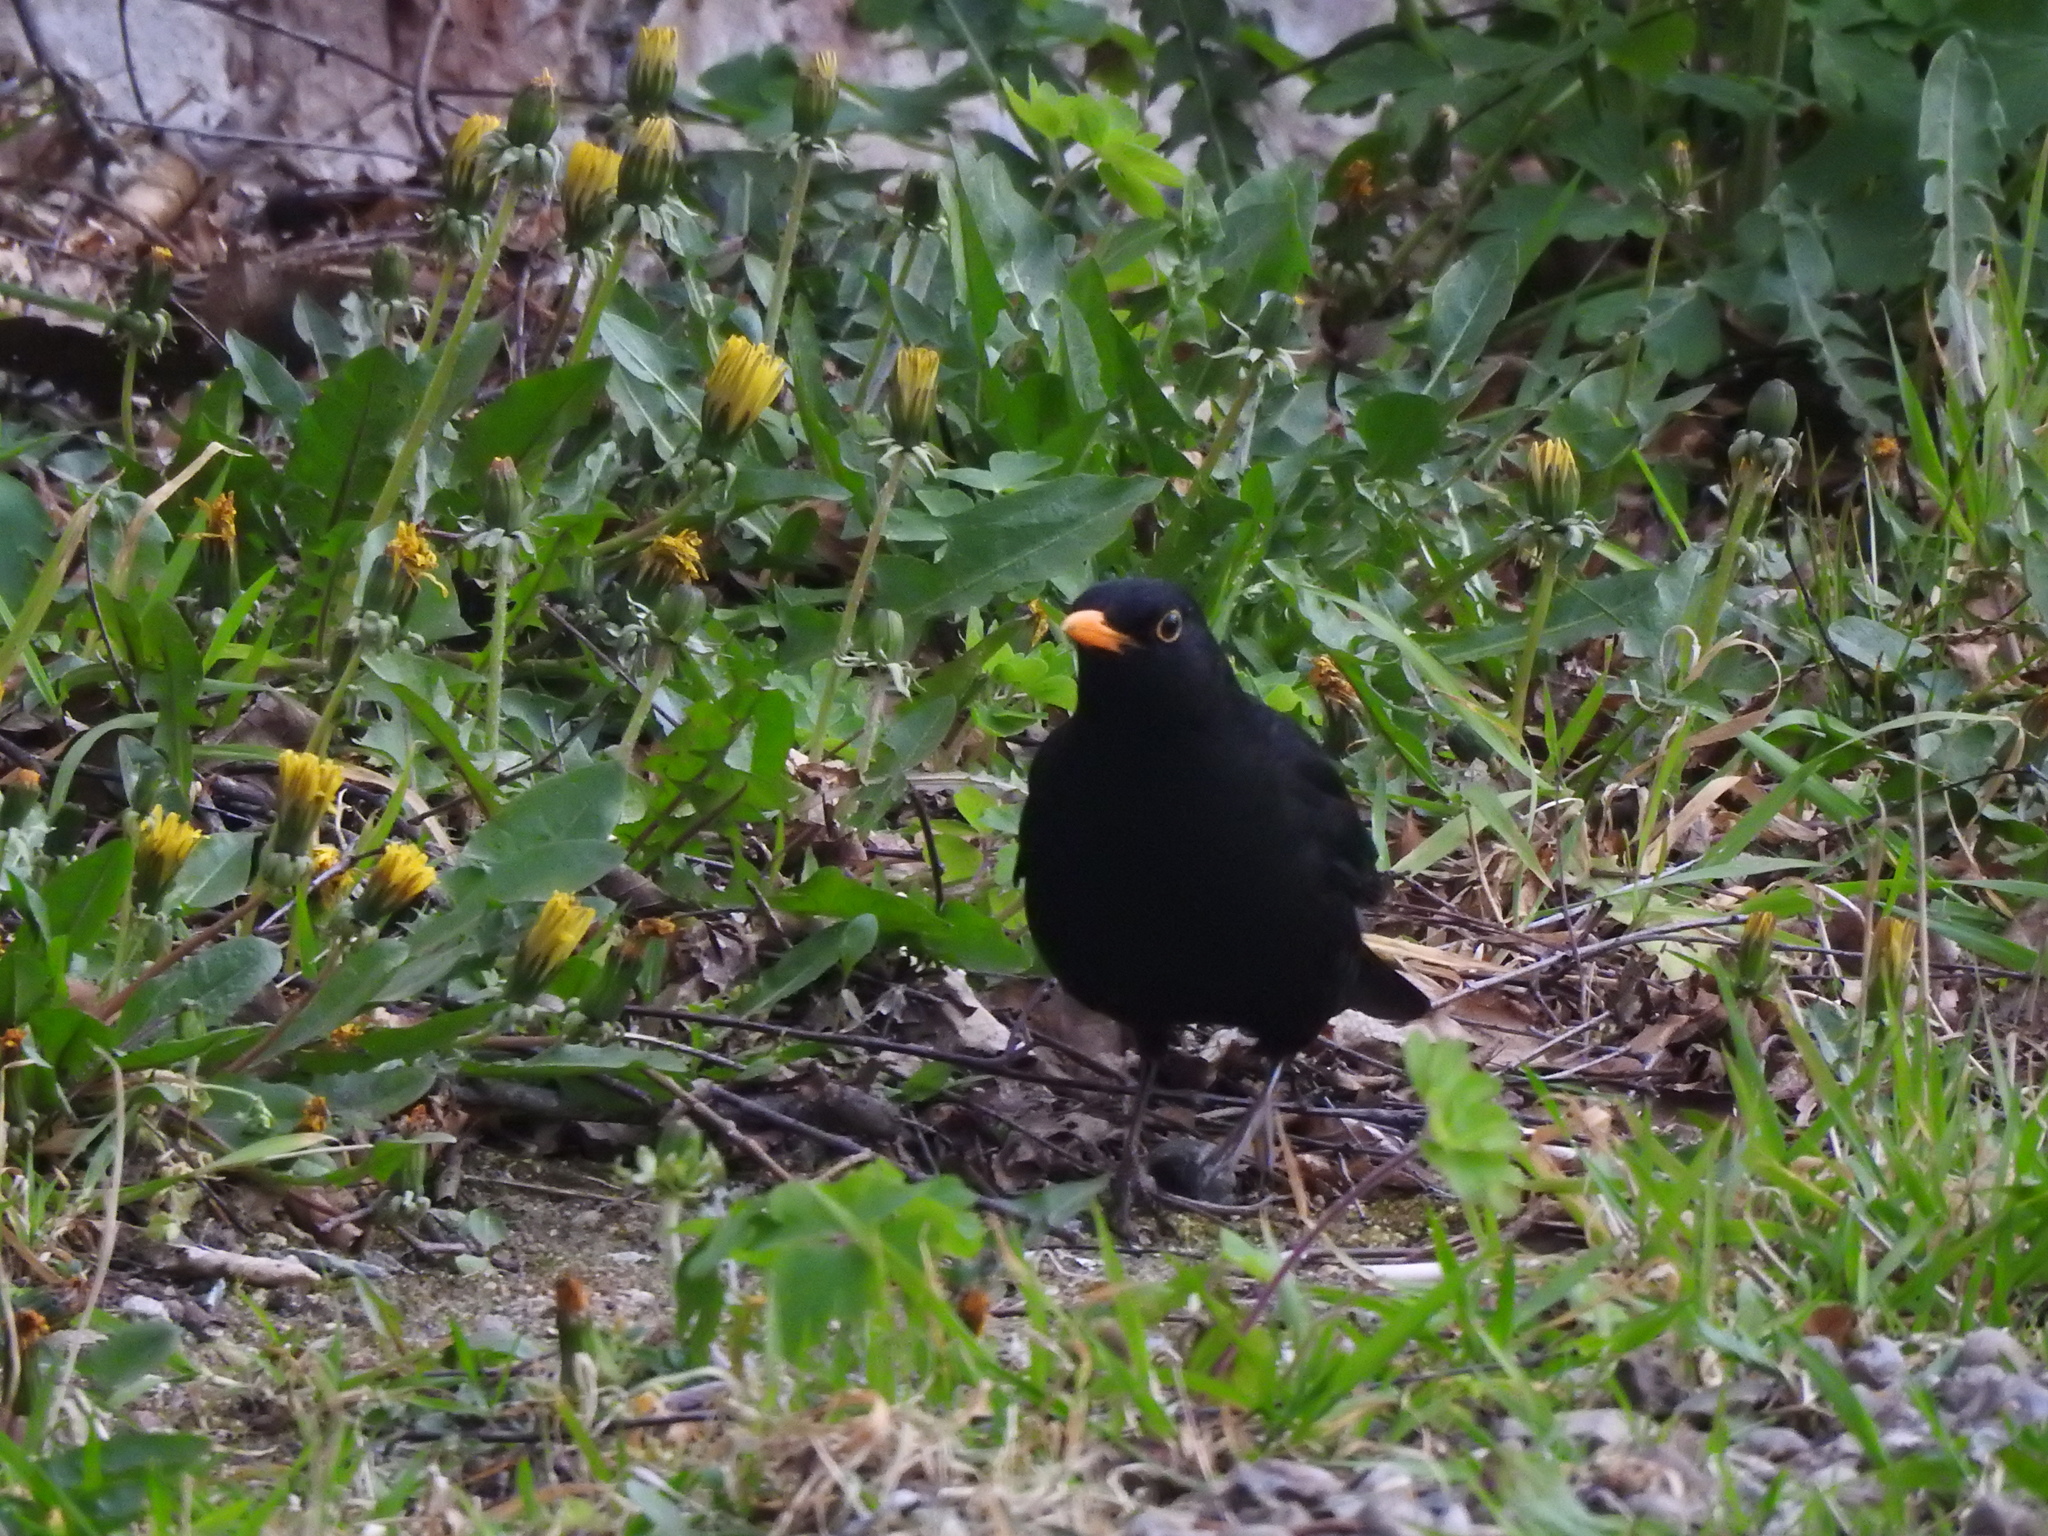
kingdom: Animalia
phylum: Chordata
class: Aves
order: Passeriformes
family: Turdidae
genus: Turdus
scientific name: Turdus merula
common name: Common blackbird
